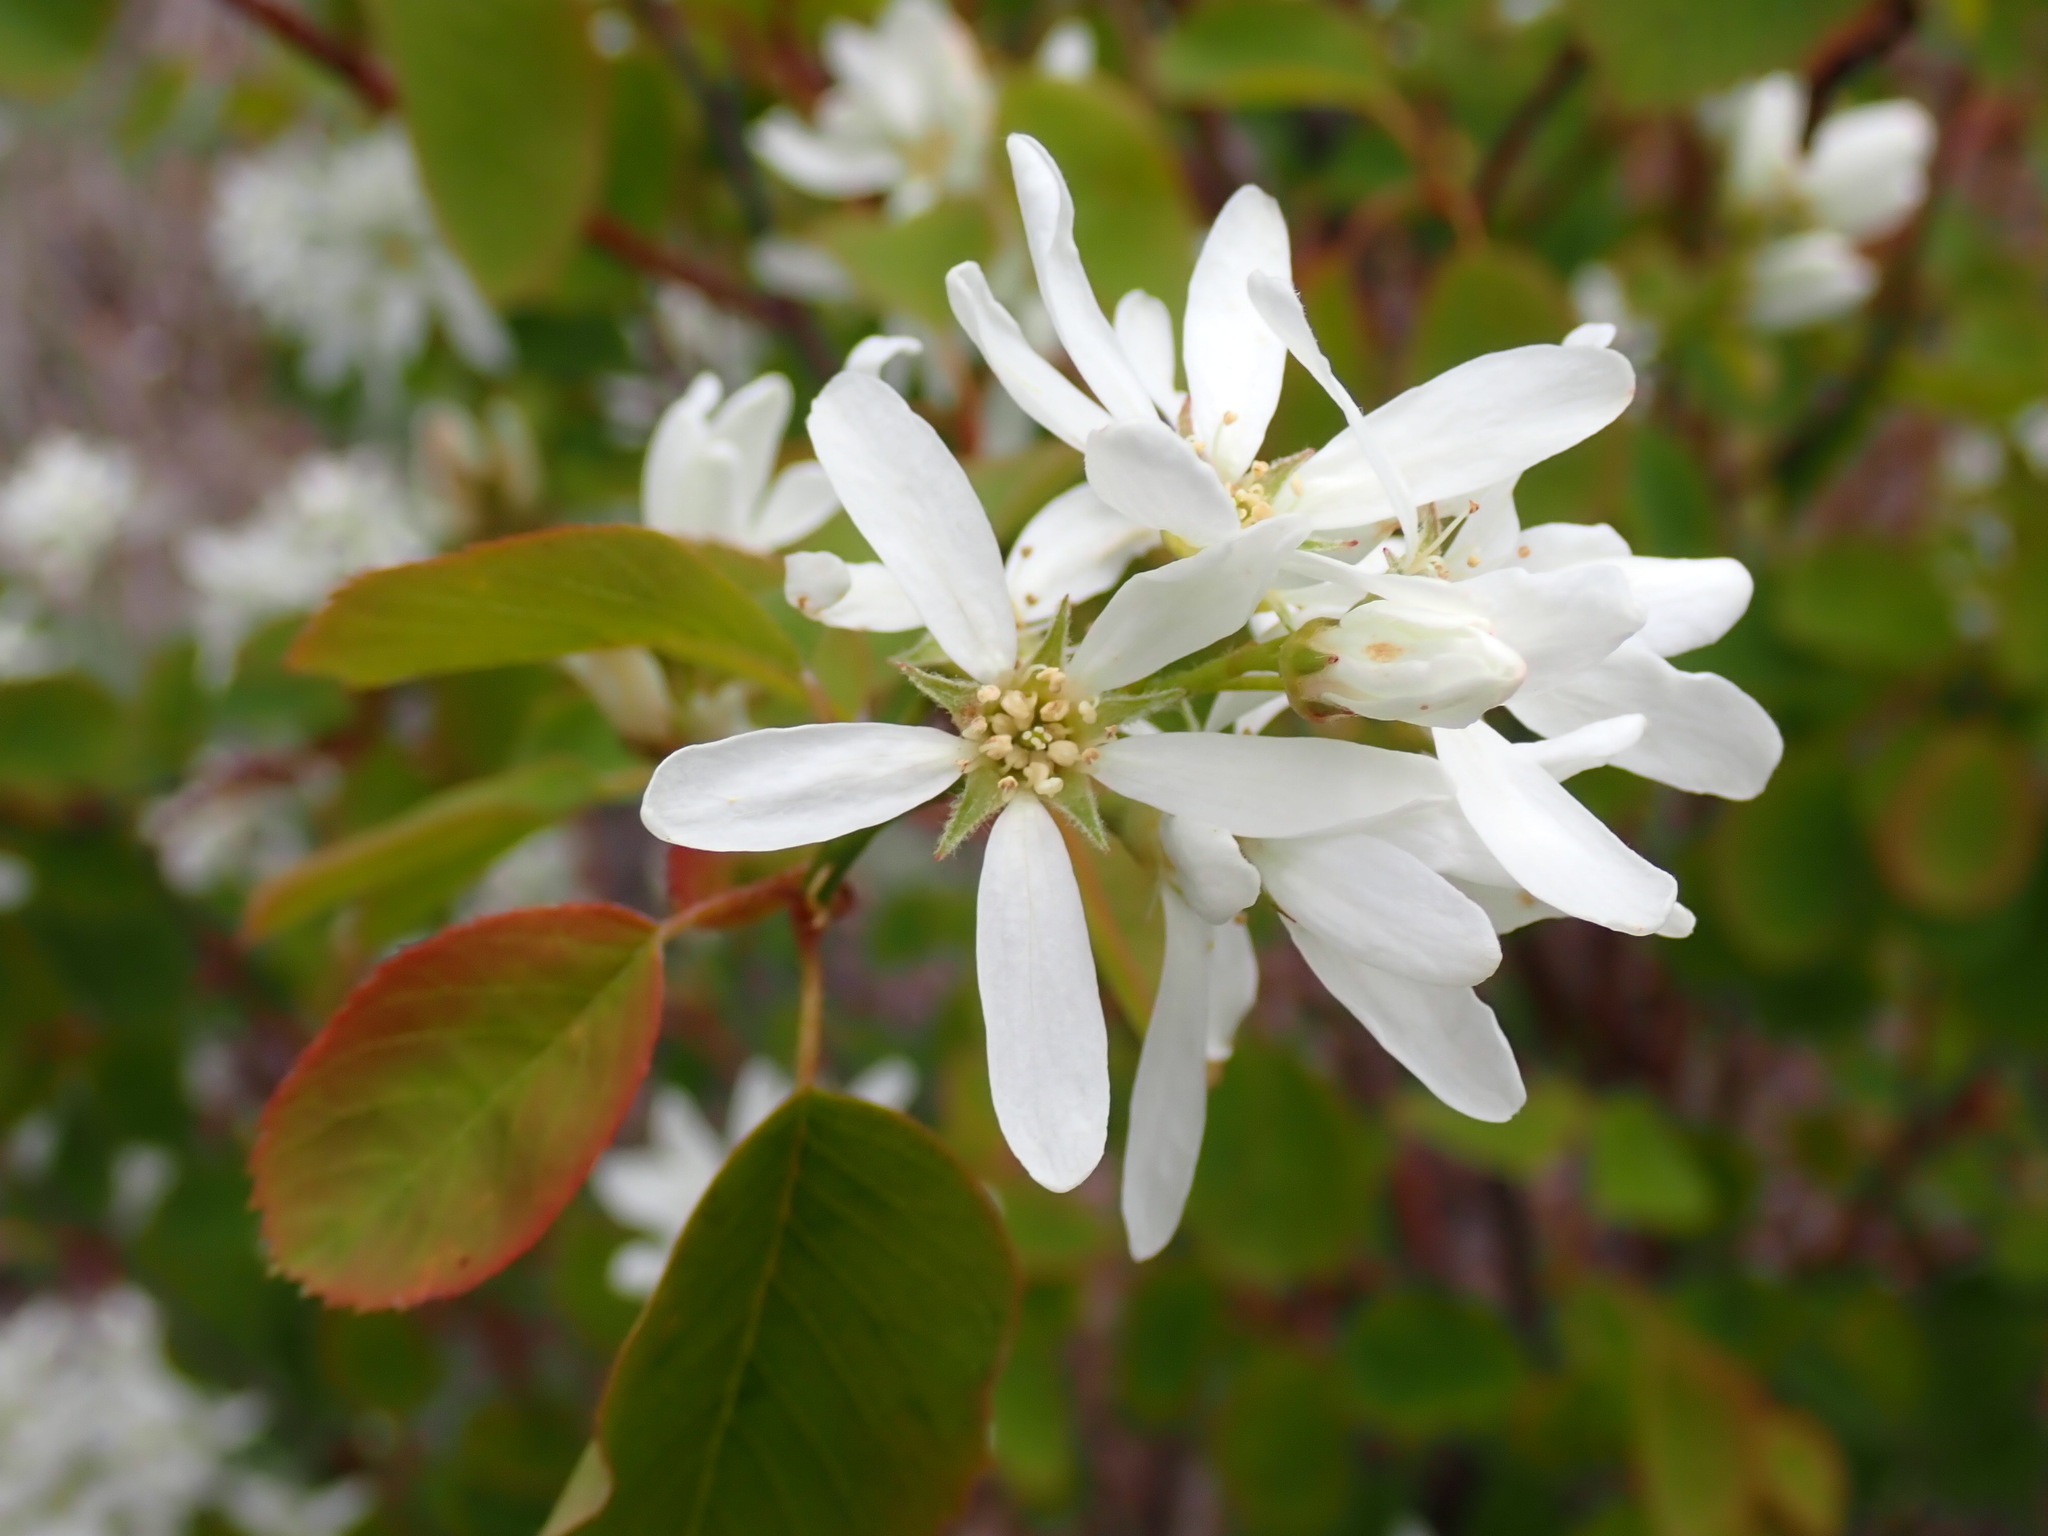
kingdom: Plantae
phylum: Tracheophyta
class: Magnoliopsida
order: Rosales
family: Rosaceae
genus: Amelanchier
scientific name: Amelanchier alnifolia
